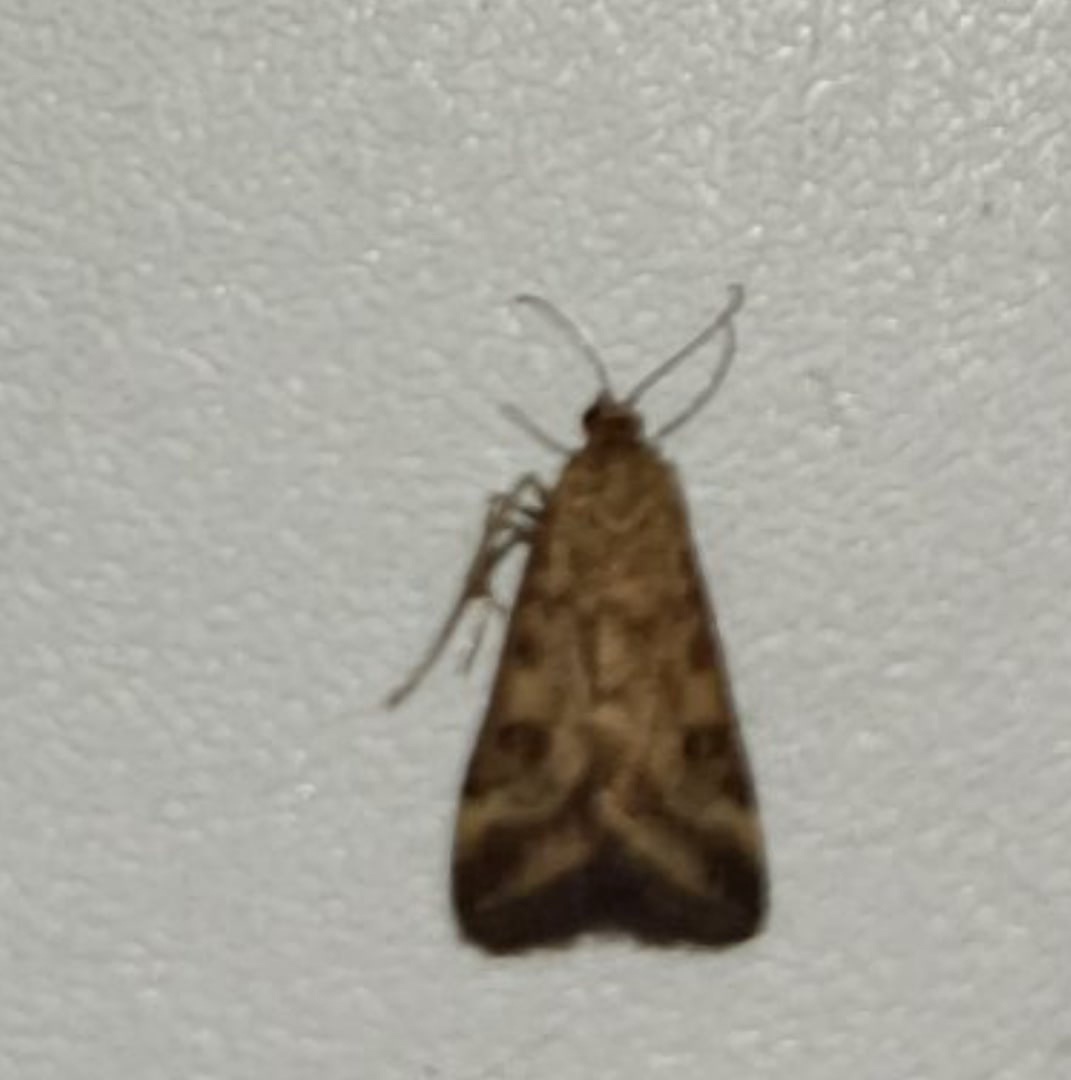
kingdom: Animalia
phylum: Arthropoda
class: Insecta
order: Lepidoptera
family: Crambidae
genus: Pyrausta
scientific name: Pyrausta despicata
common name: Straw-barred pearl
